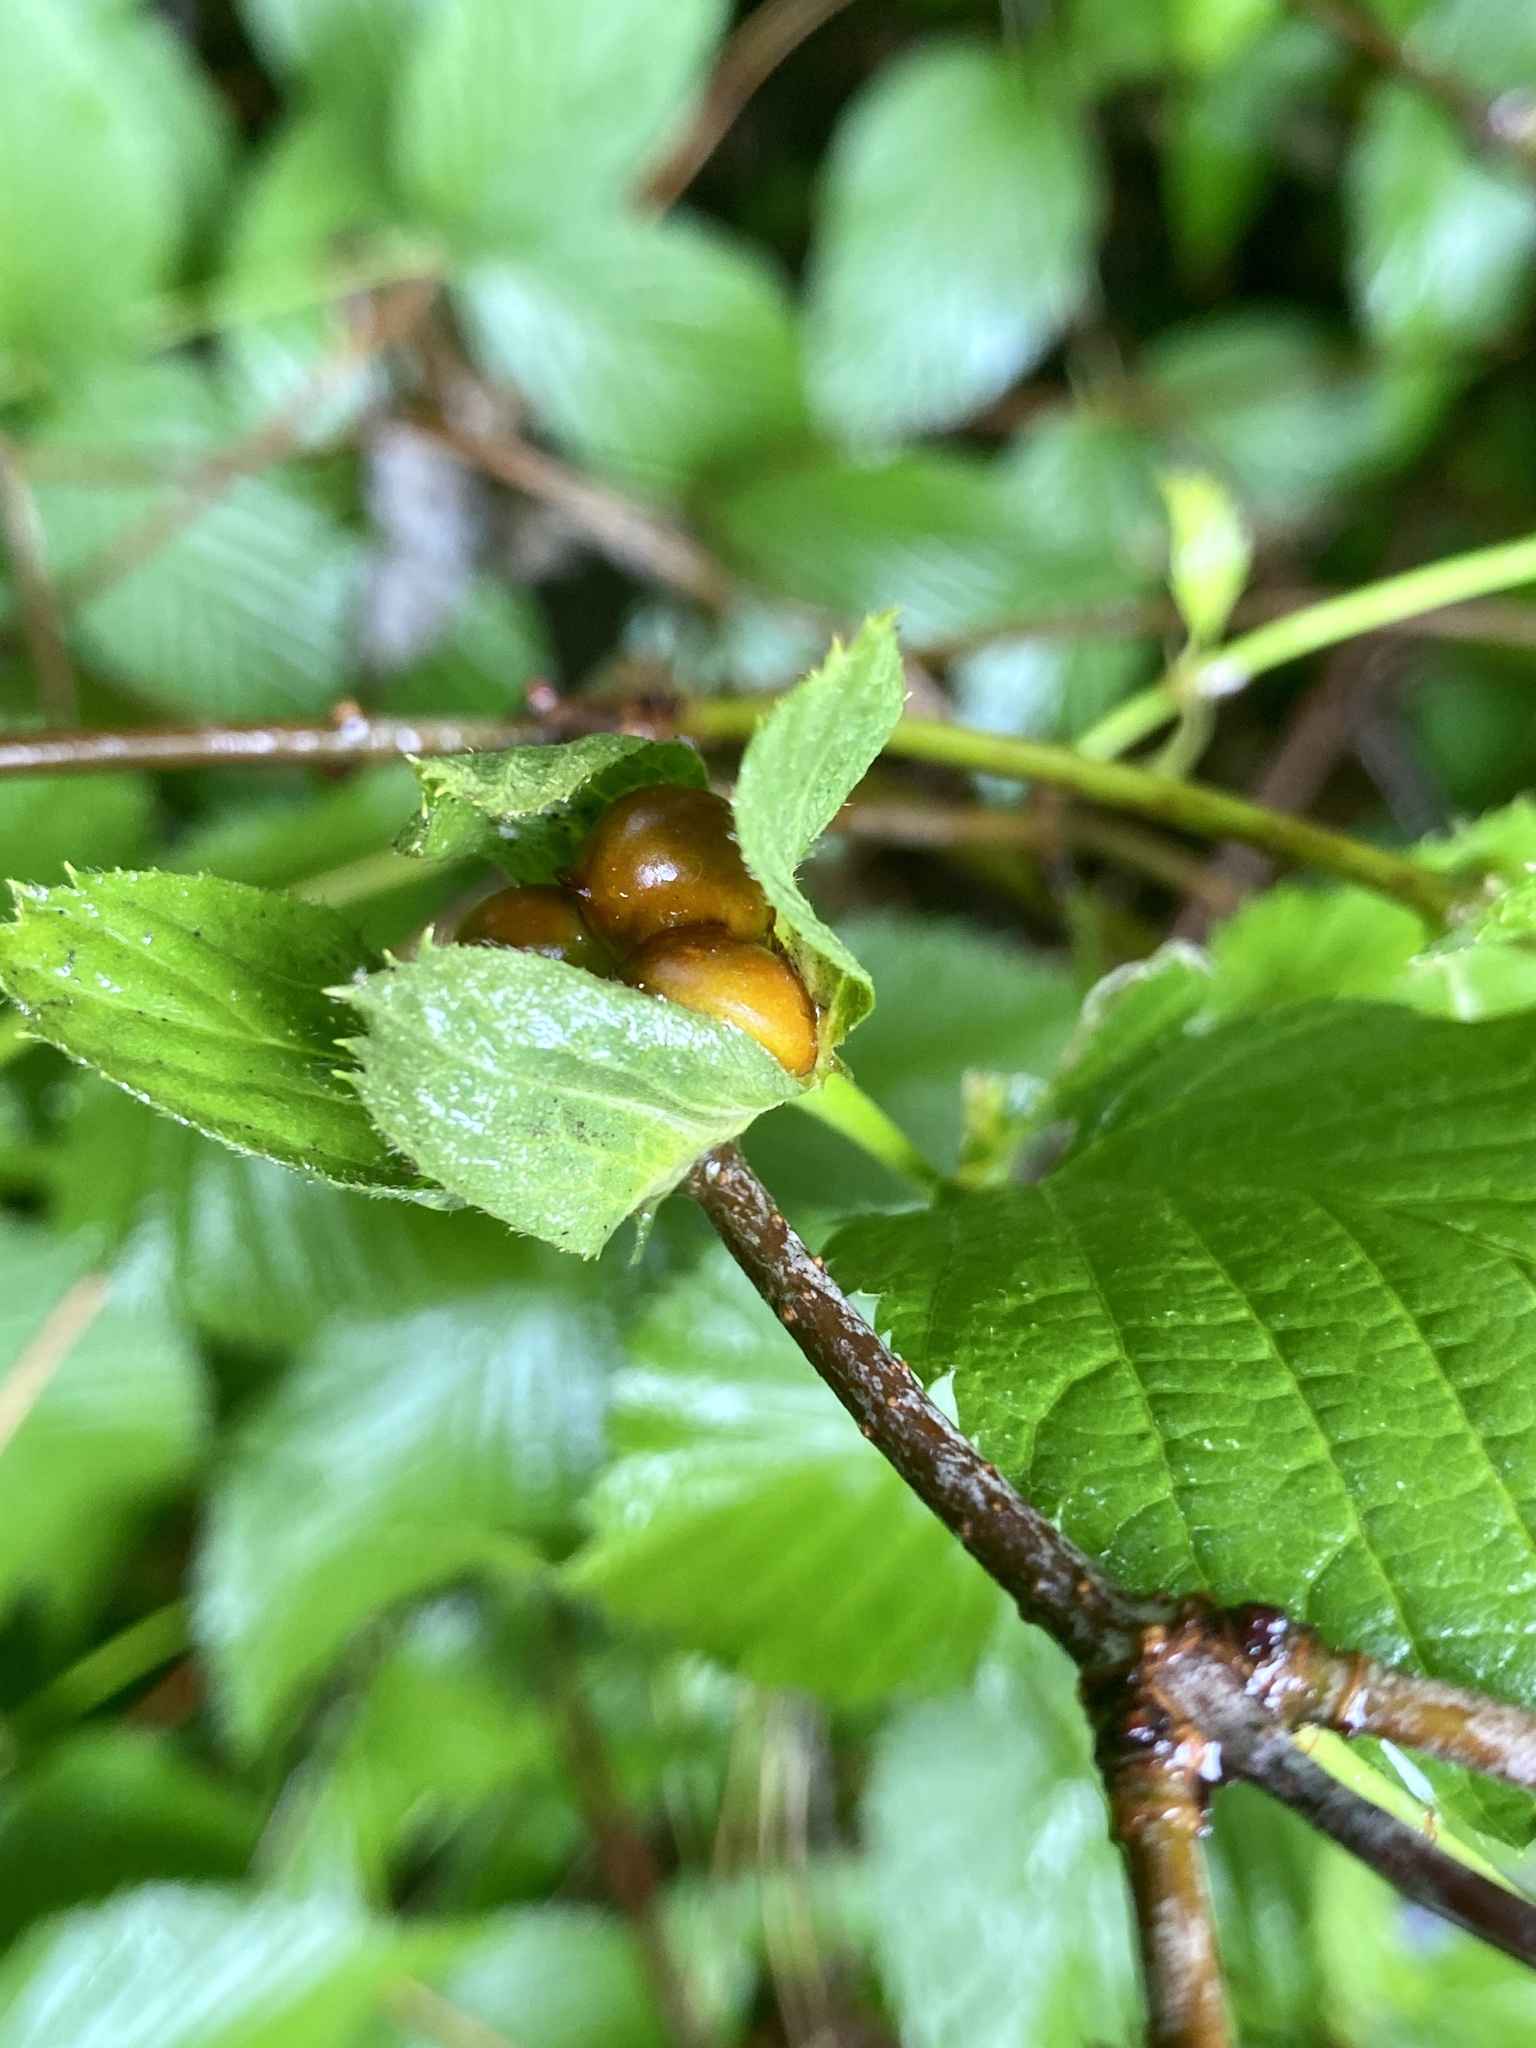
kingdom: Plantae
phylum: Tracheophyta
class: Magnoliopsida
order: Rosales
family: Rosaceae
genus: Rhodotypos
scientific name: Rhodotypos scandens
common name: Jetbead
